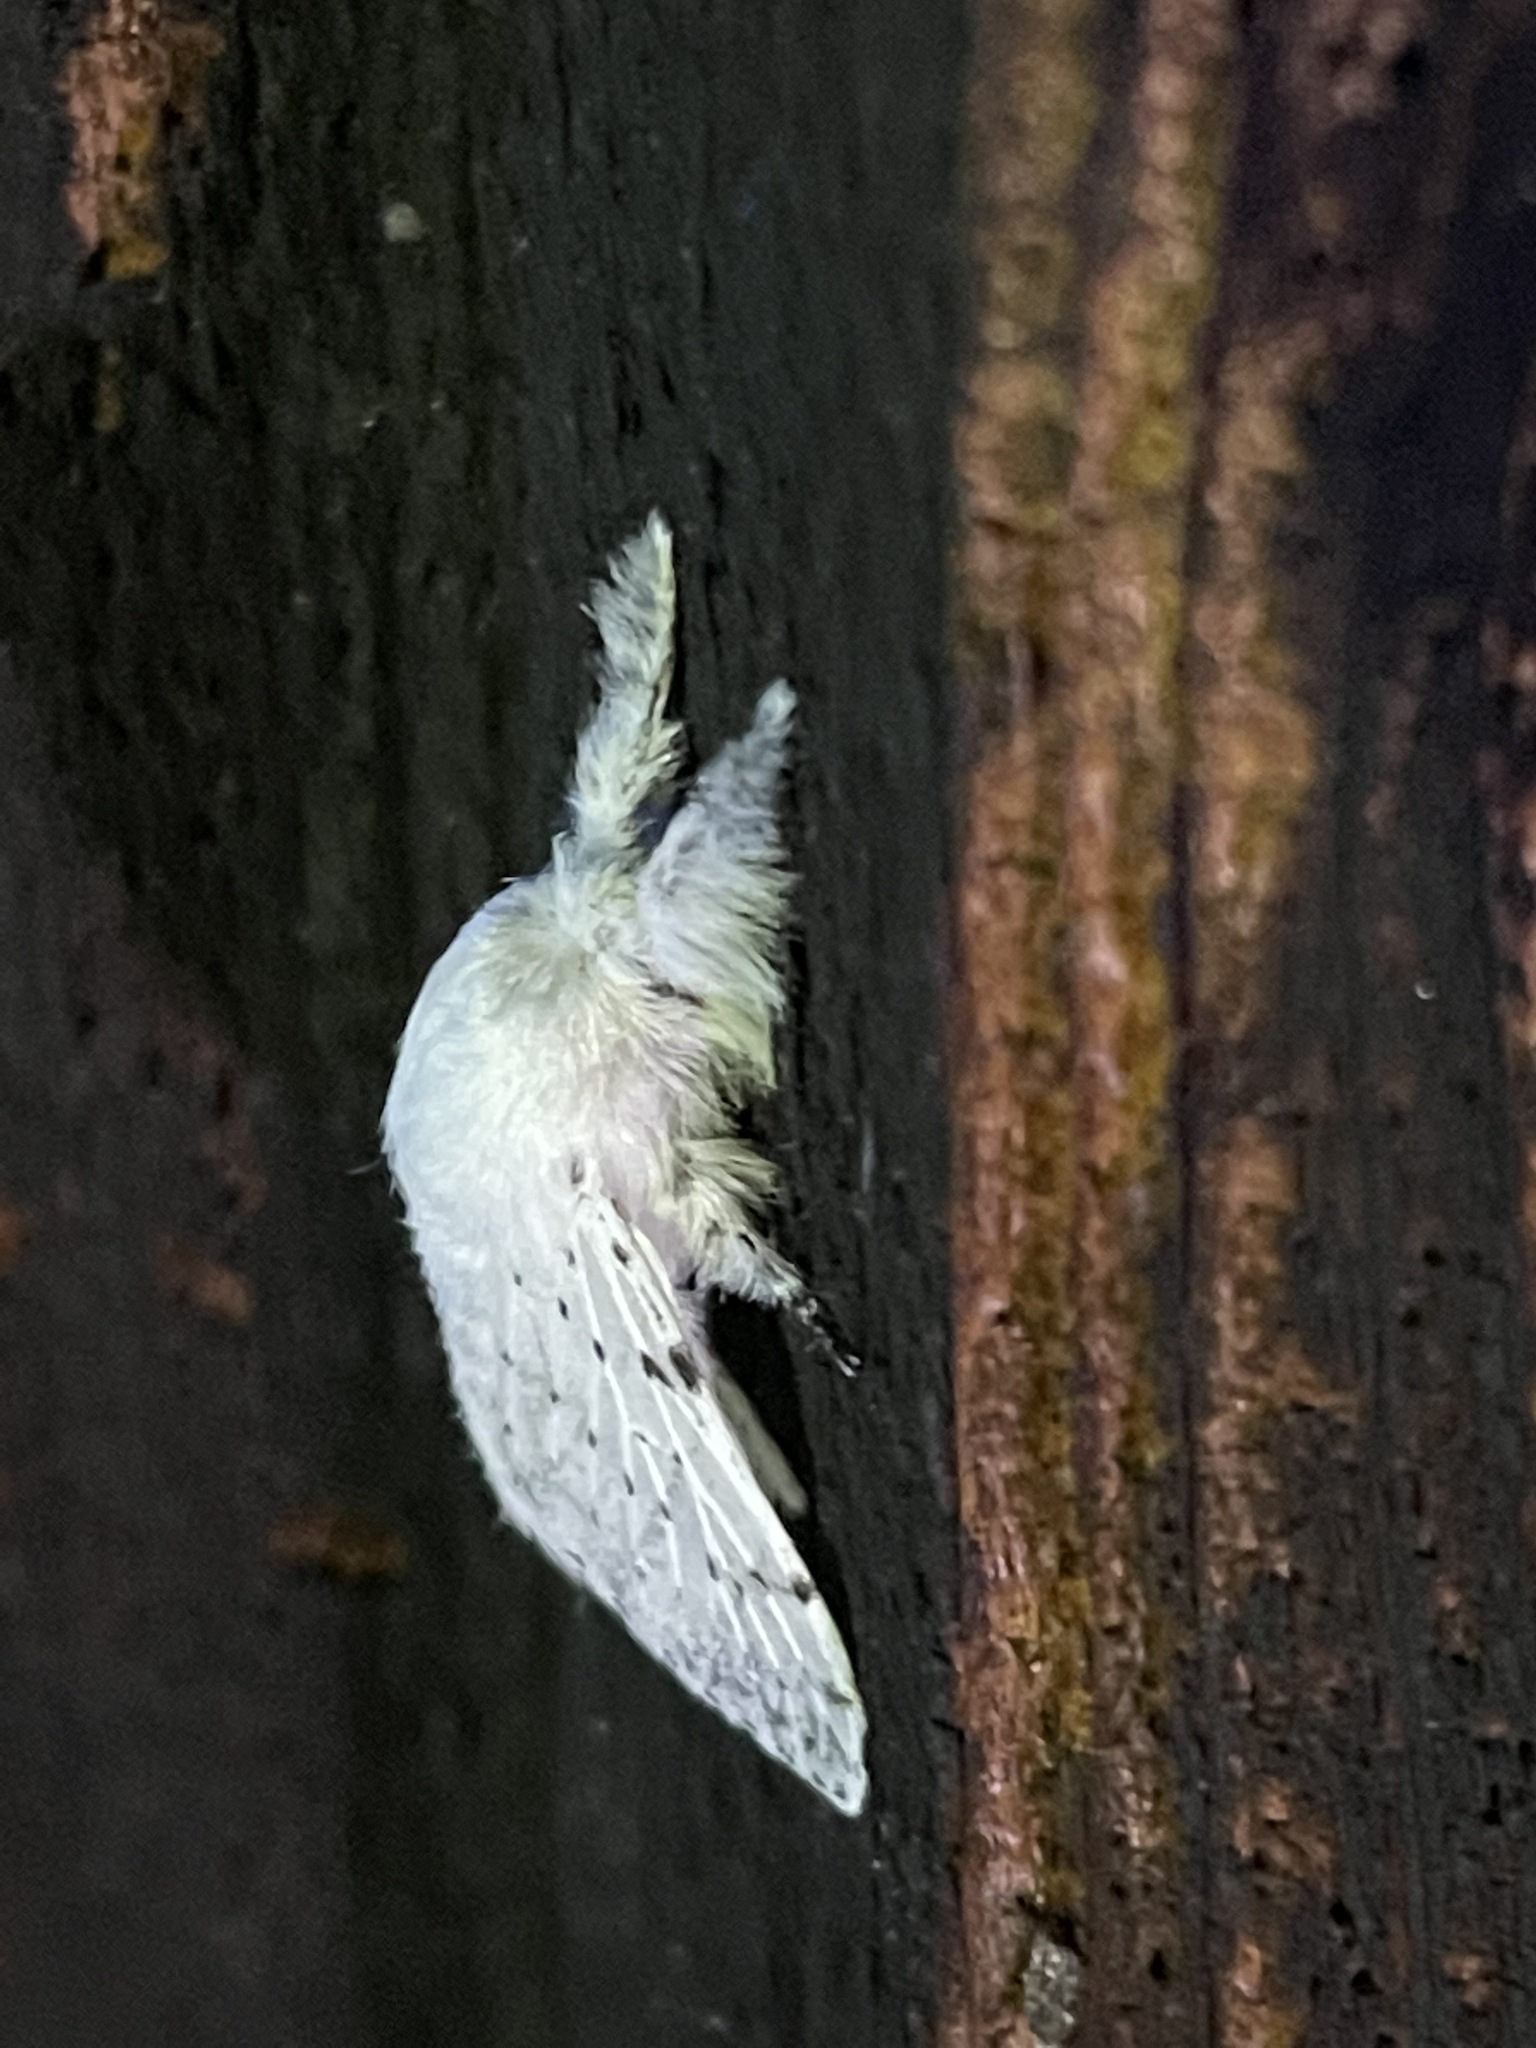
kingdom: Animalia
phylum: Arthropoda
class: Insecta
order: Lepidoptera
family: Lasiocampidae
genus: Artace
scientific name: Artace cribrarius
